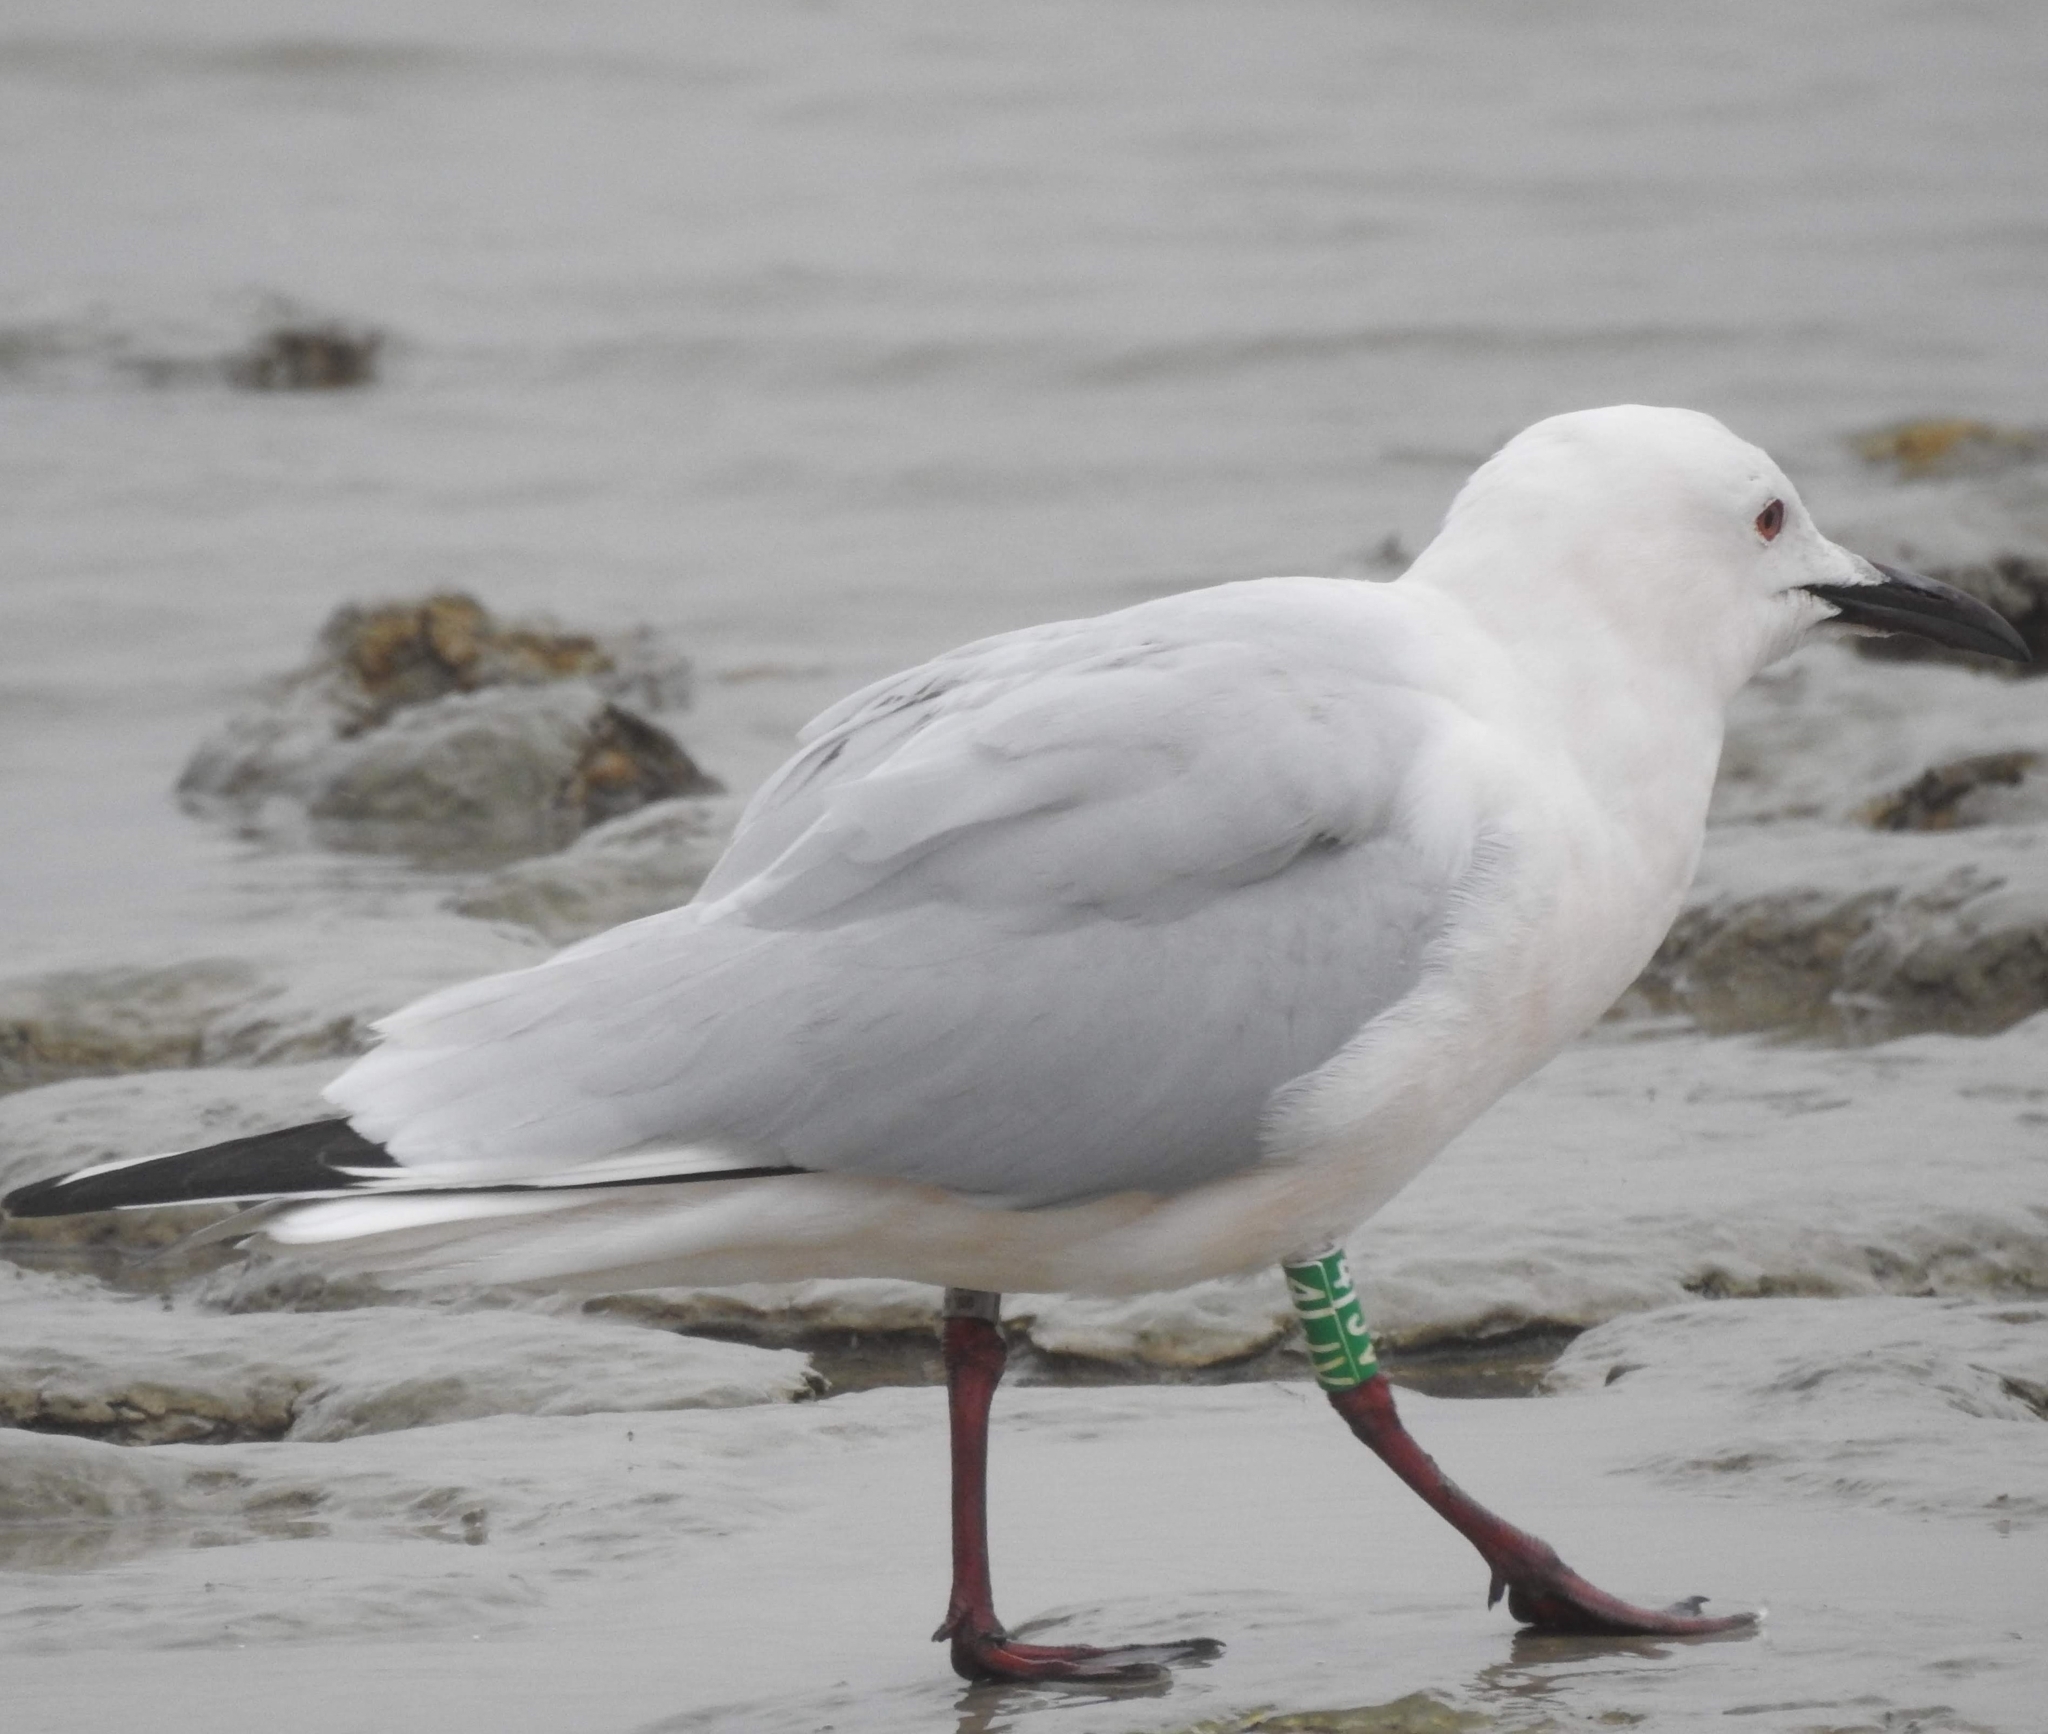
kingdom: Animalia
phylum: Chordata
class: Aves
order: Charadriiformes
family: Laridae
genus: Chroicocephalus
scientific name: Chroicocephalus genei
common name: Slender-billed gull
